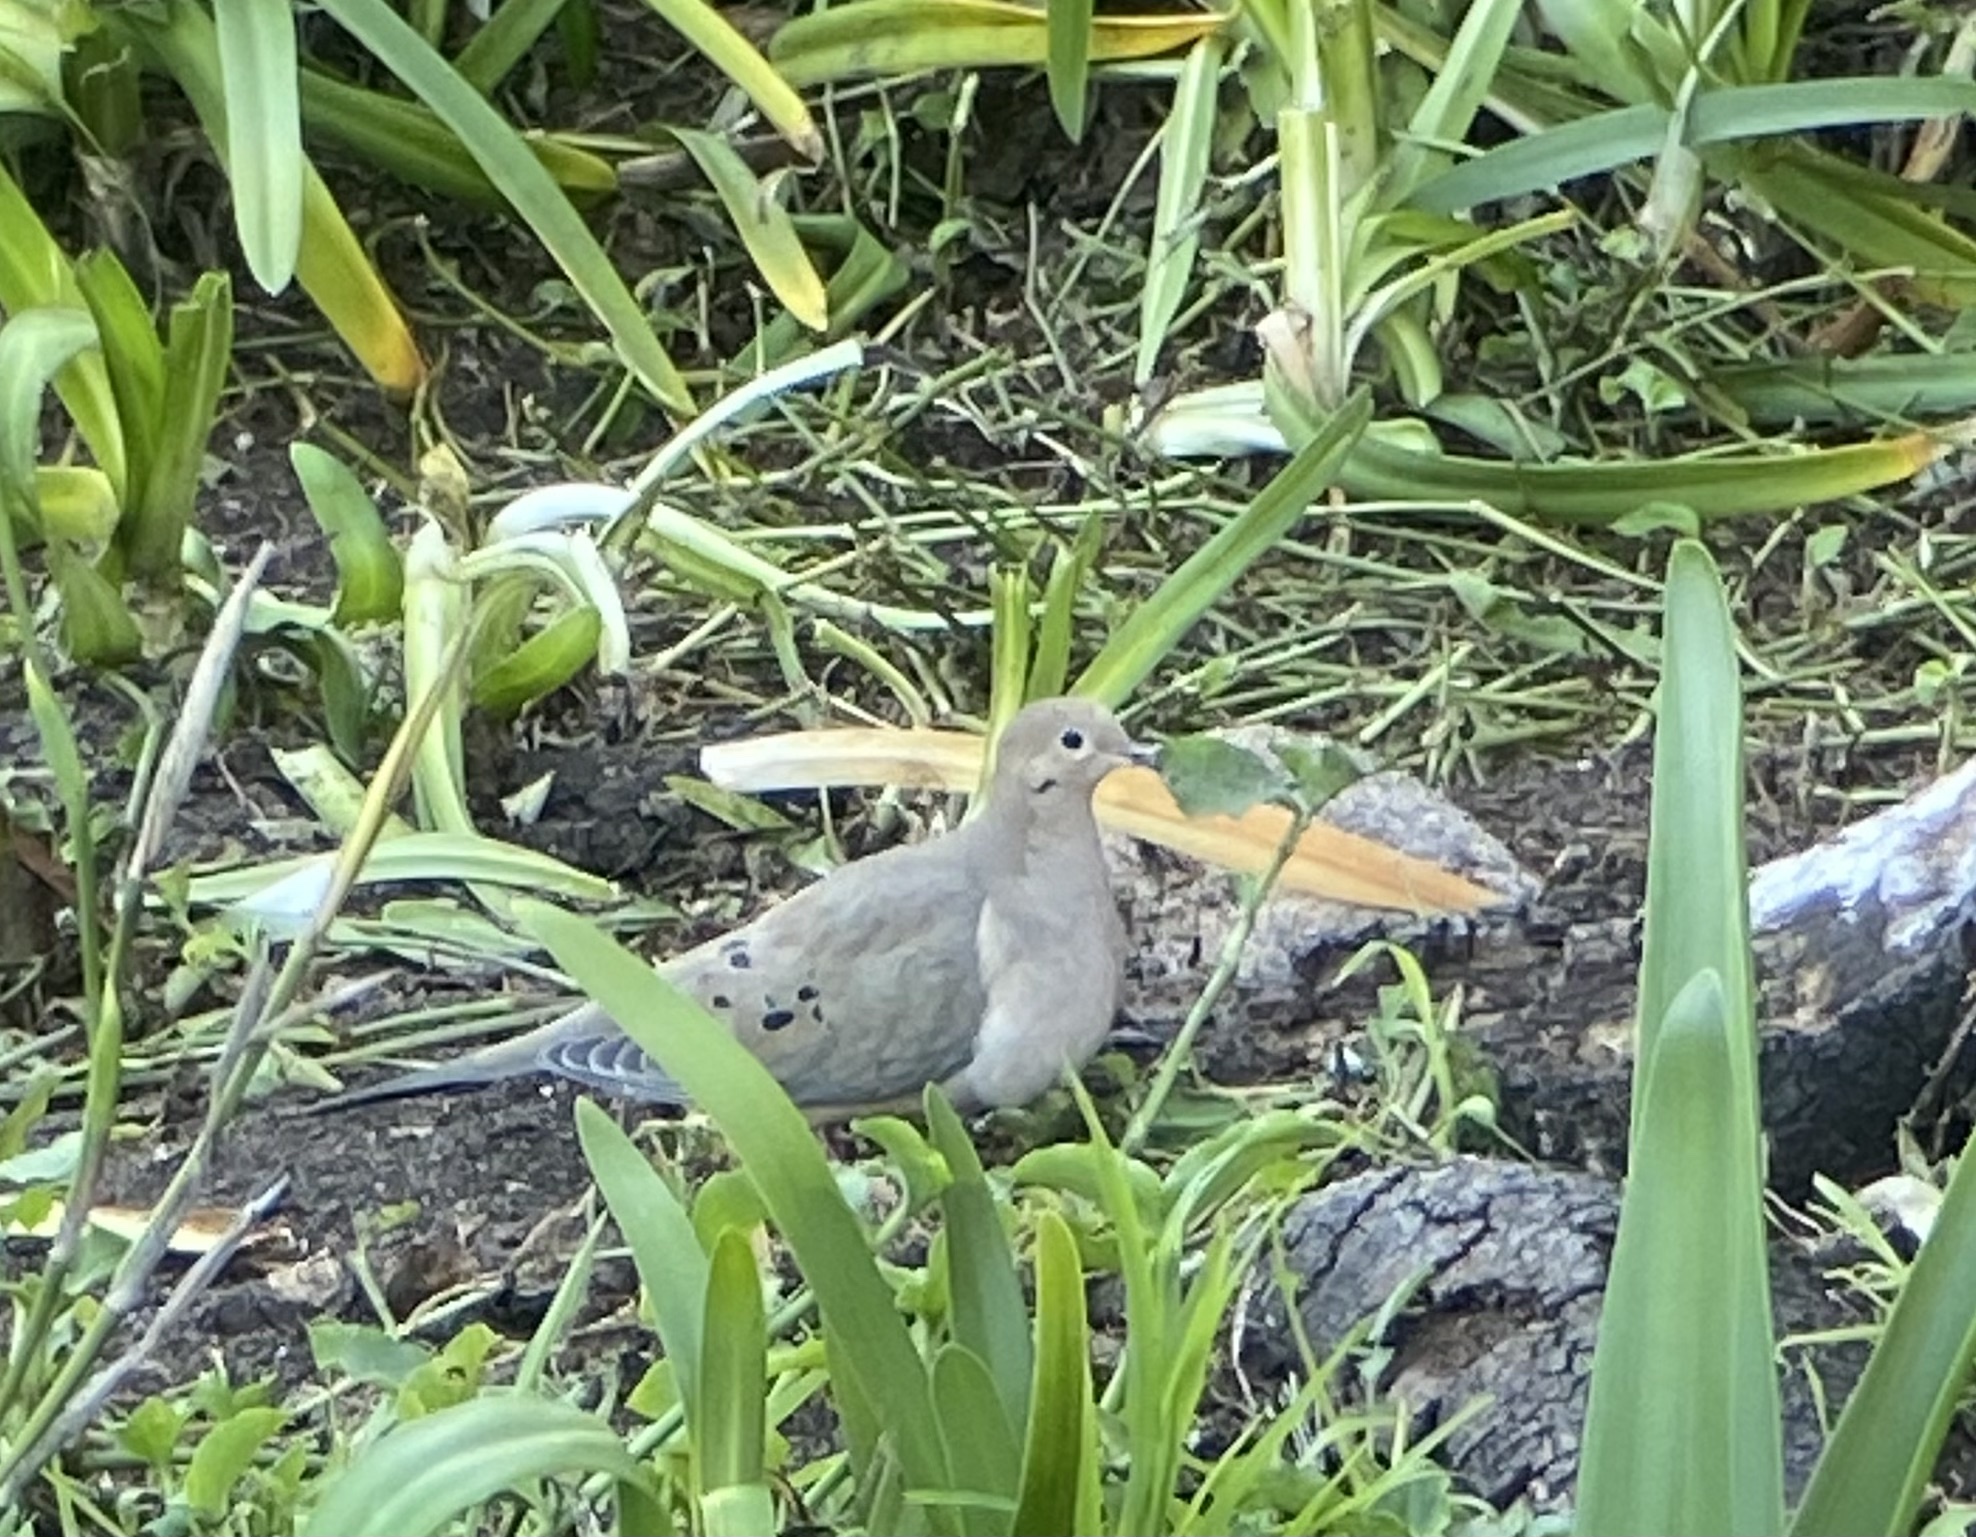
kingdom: Animalia
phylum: Chordata
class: Aves
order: Columbiformes
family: Columbidae
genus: Zenaida
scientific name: Zenaida macroura
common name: Mourning dove
